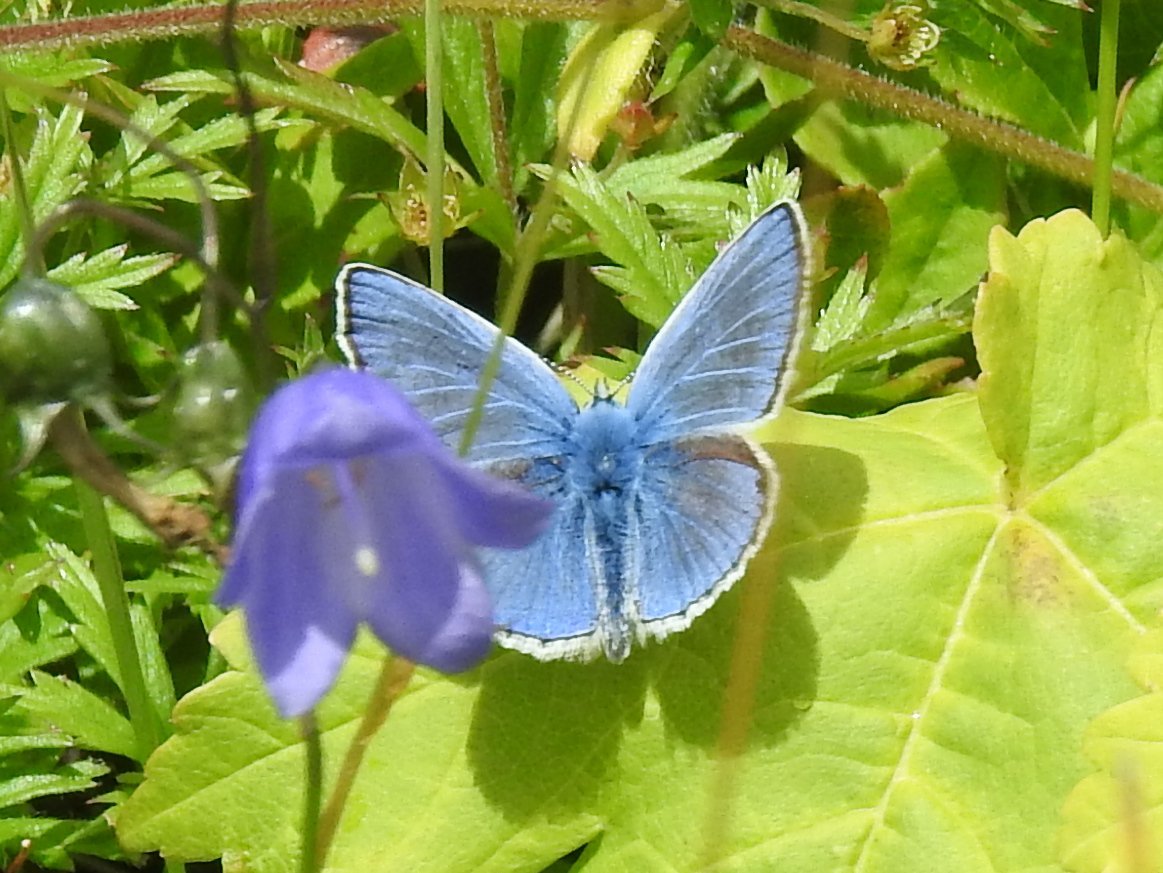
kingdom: Animalia
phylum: Arthropoda
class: Insecta
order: Lepidoptera
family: Lycaenidae
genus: Polyommatus
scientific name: Polyommatus icarus
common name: Common blue
